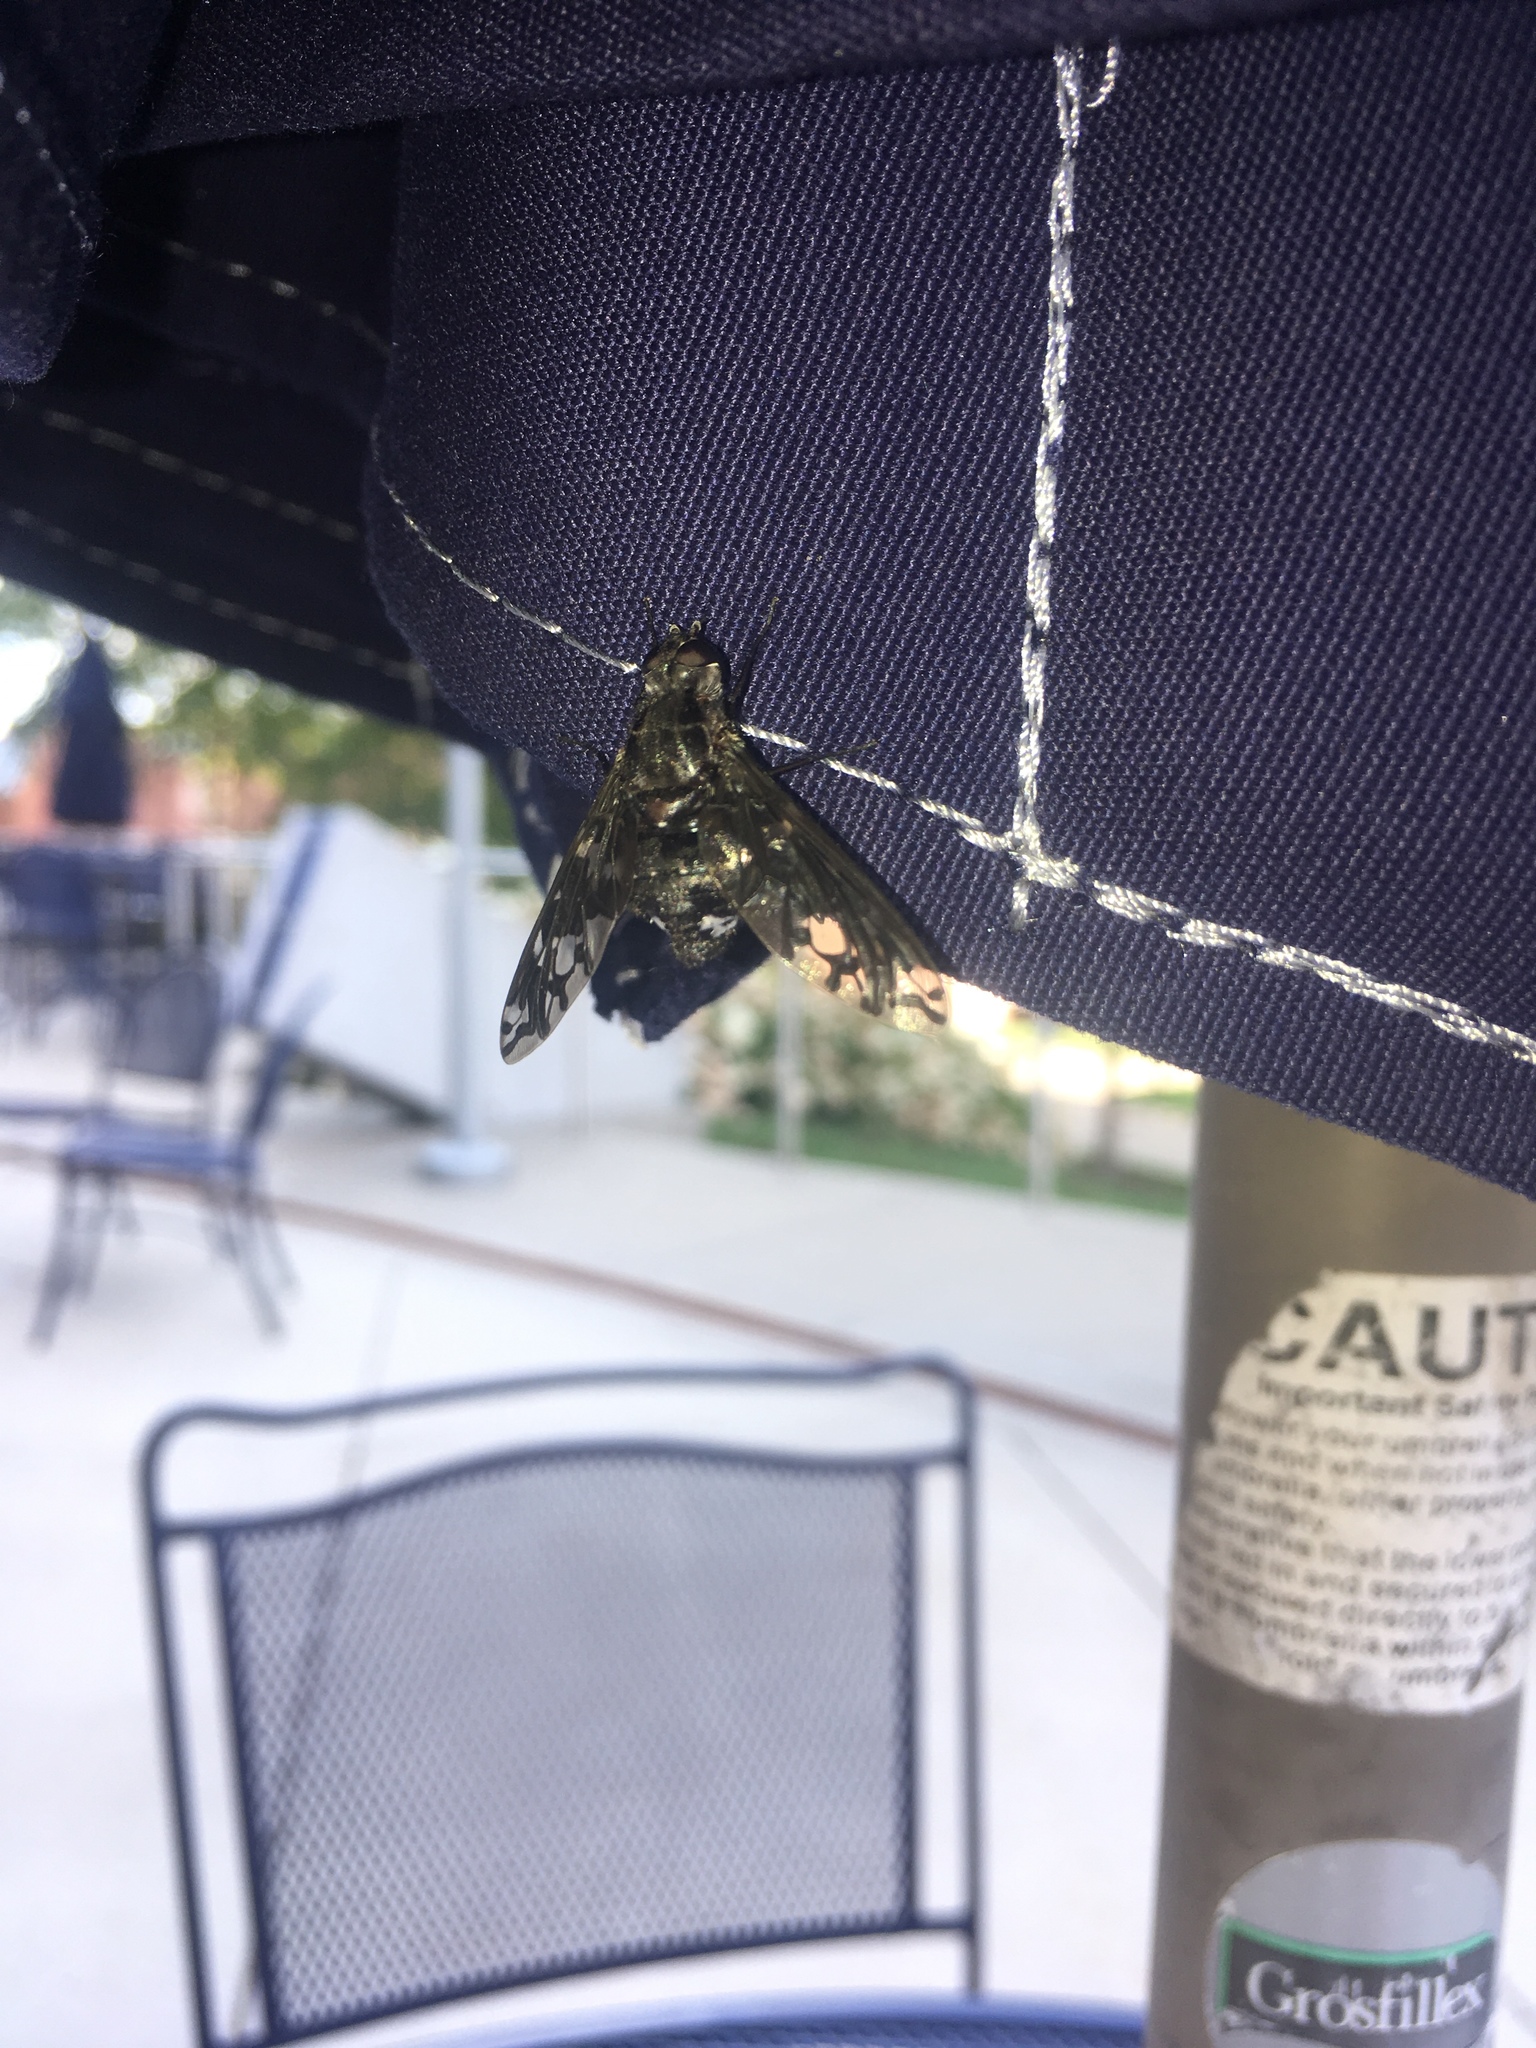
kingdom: Animalia
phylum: Arthropoda
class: Insecta
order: Diptera
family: Bombyliidae
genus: Xenox
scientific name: Xenox tigrinus
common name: Tiger bee fly
